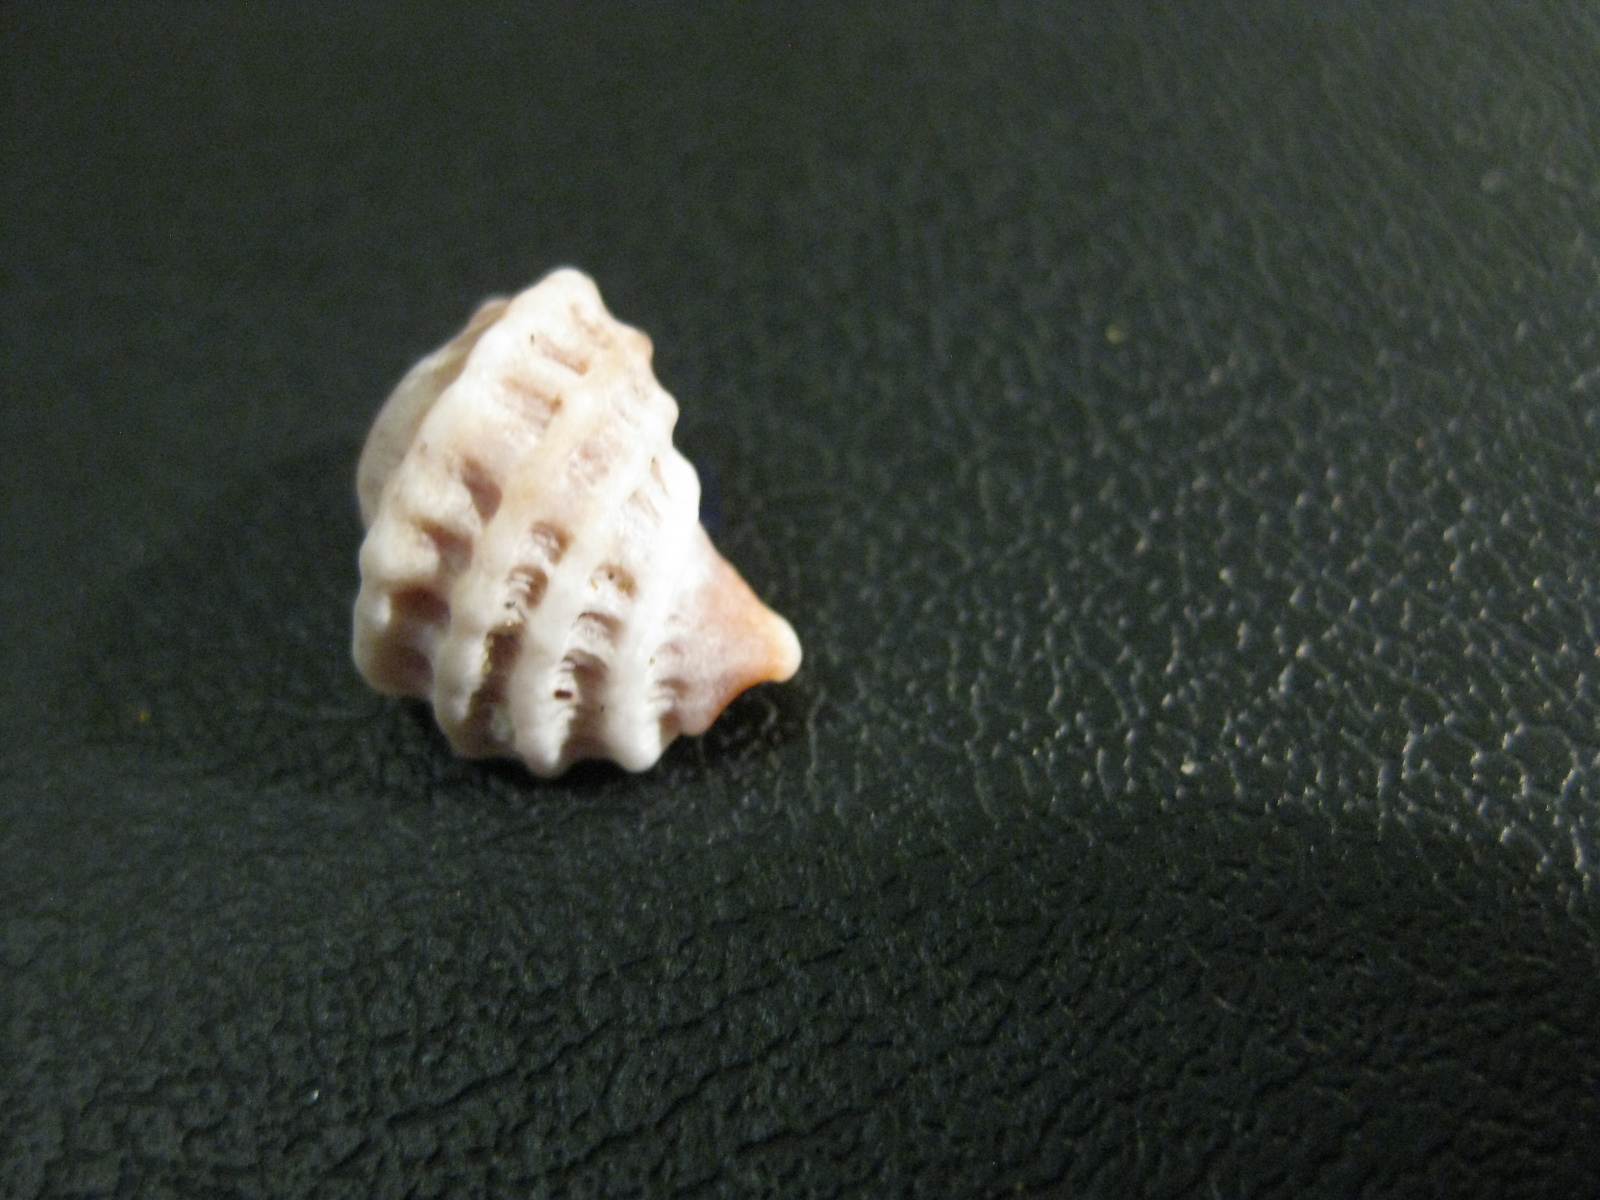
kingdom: Animalia
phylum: Mollusca
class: Gastropoda
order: Neogastropoda
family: Muricidae
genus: Paratrophon
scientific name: Paratrophon quoyi
